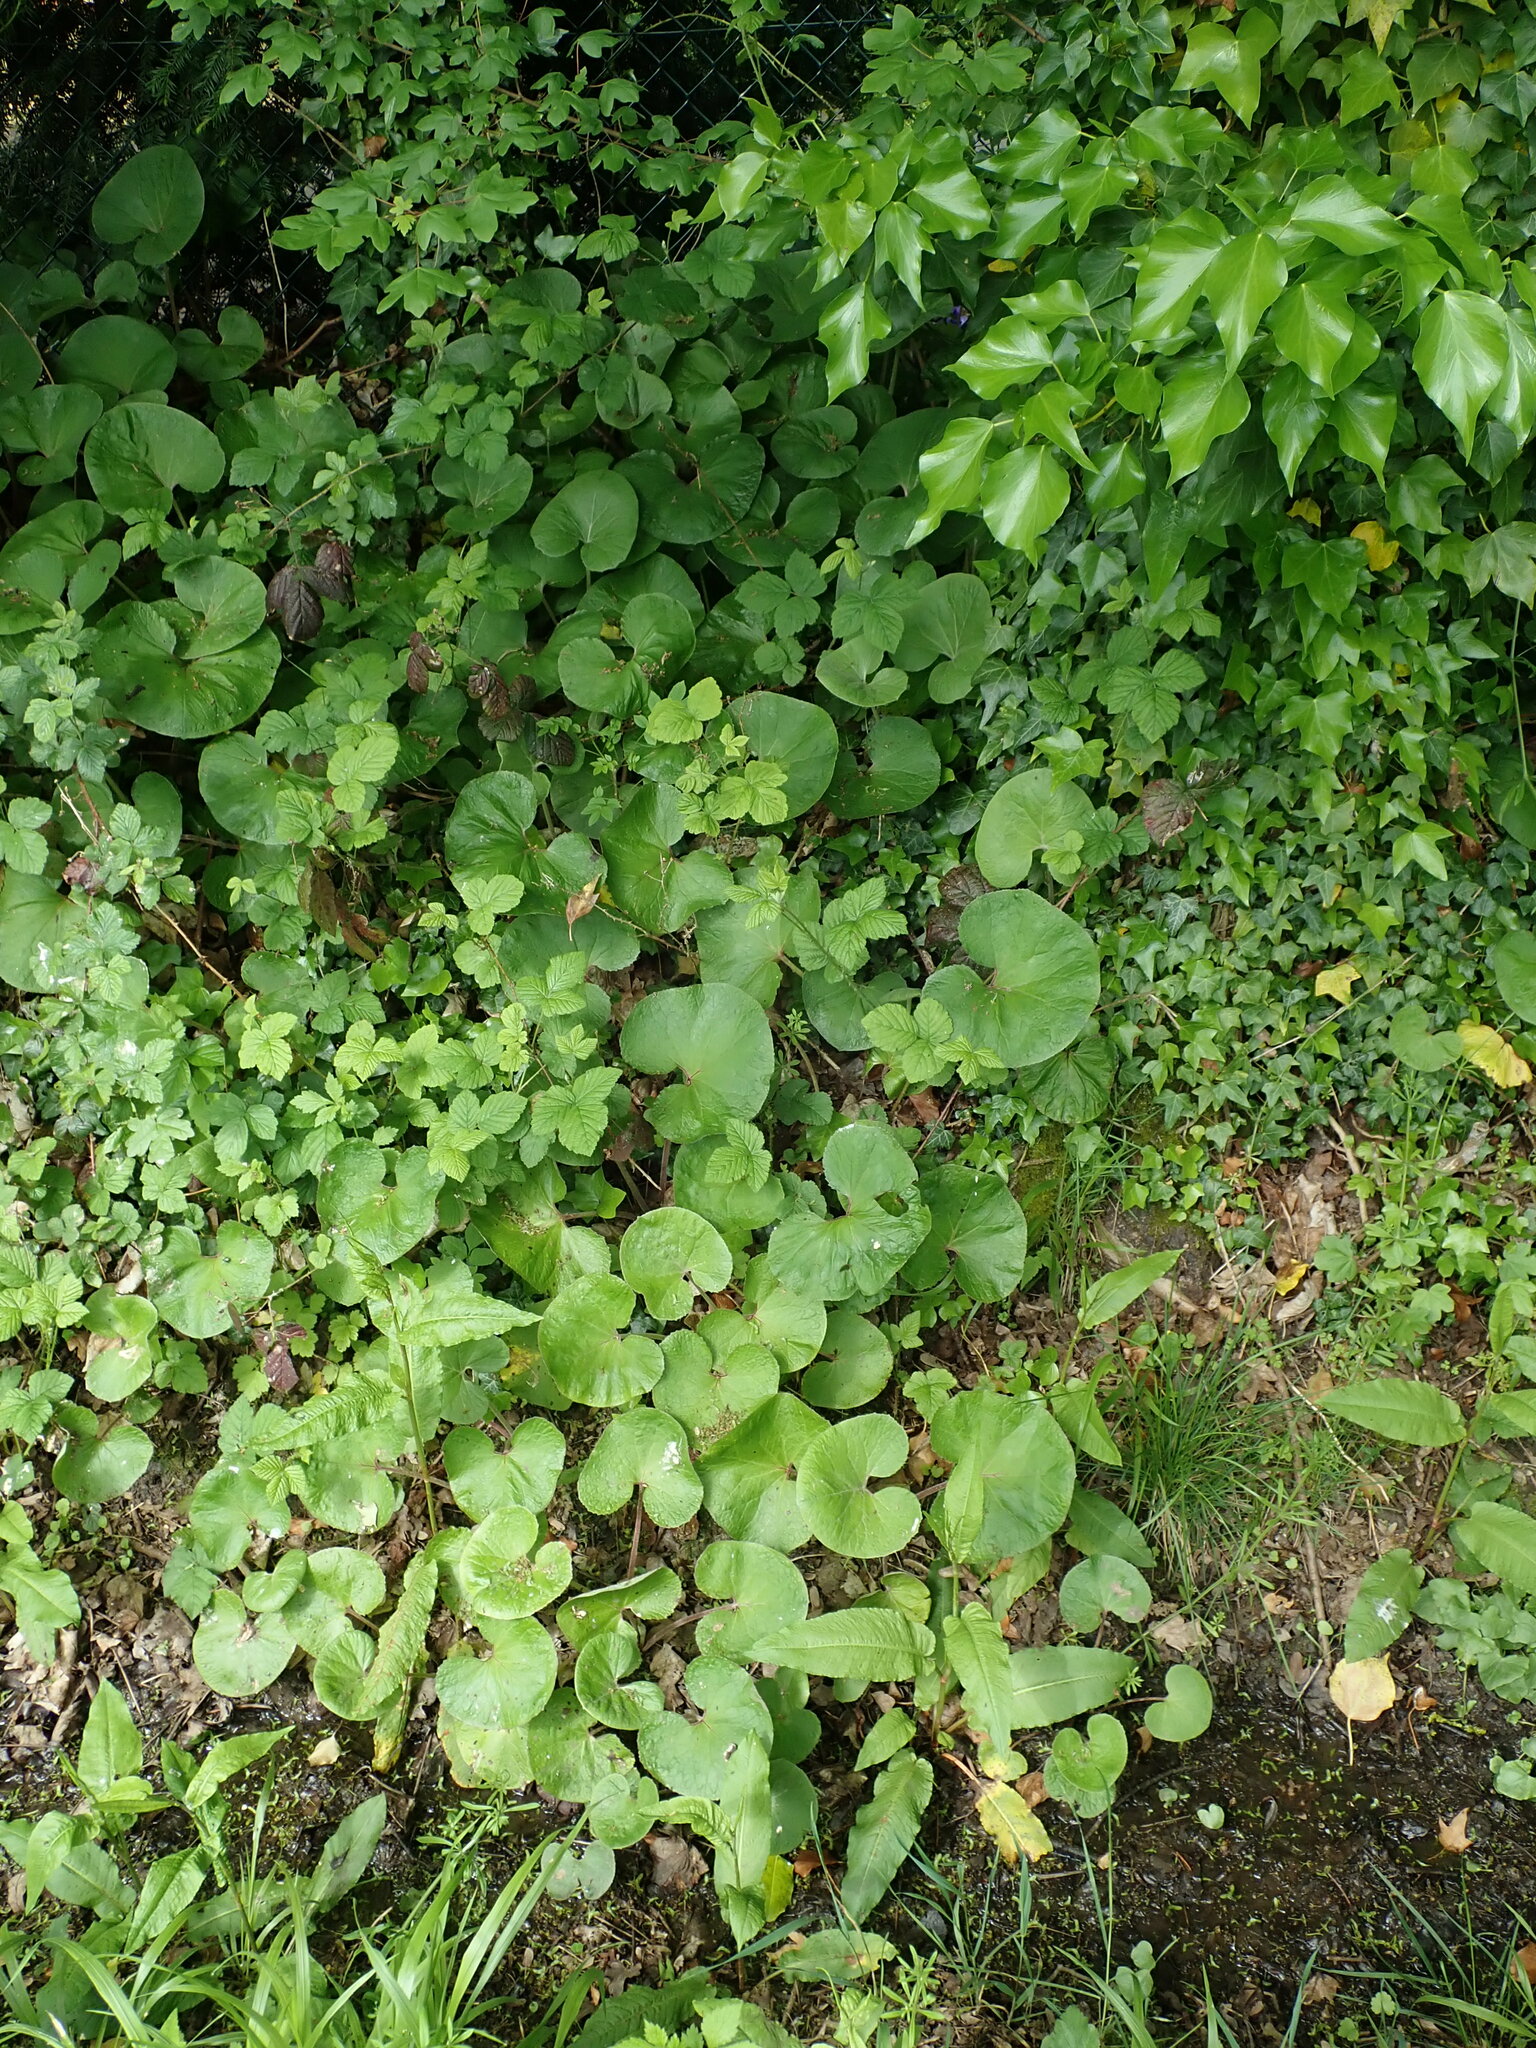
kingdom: Plantae
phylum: Tracheophyta
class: Magnoliopsida
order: Asterales
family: Asteraceae
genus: Petasites
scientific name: Petasites pyrenaicus
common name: Winter heliotrope
